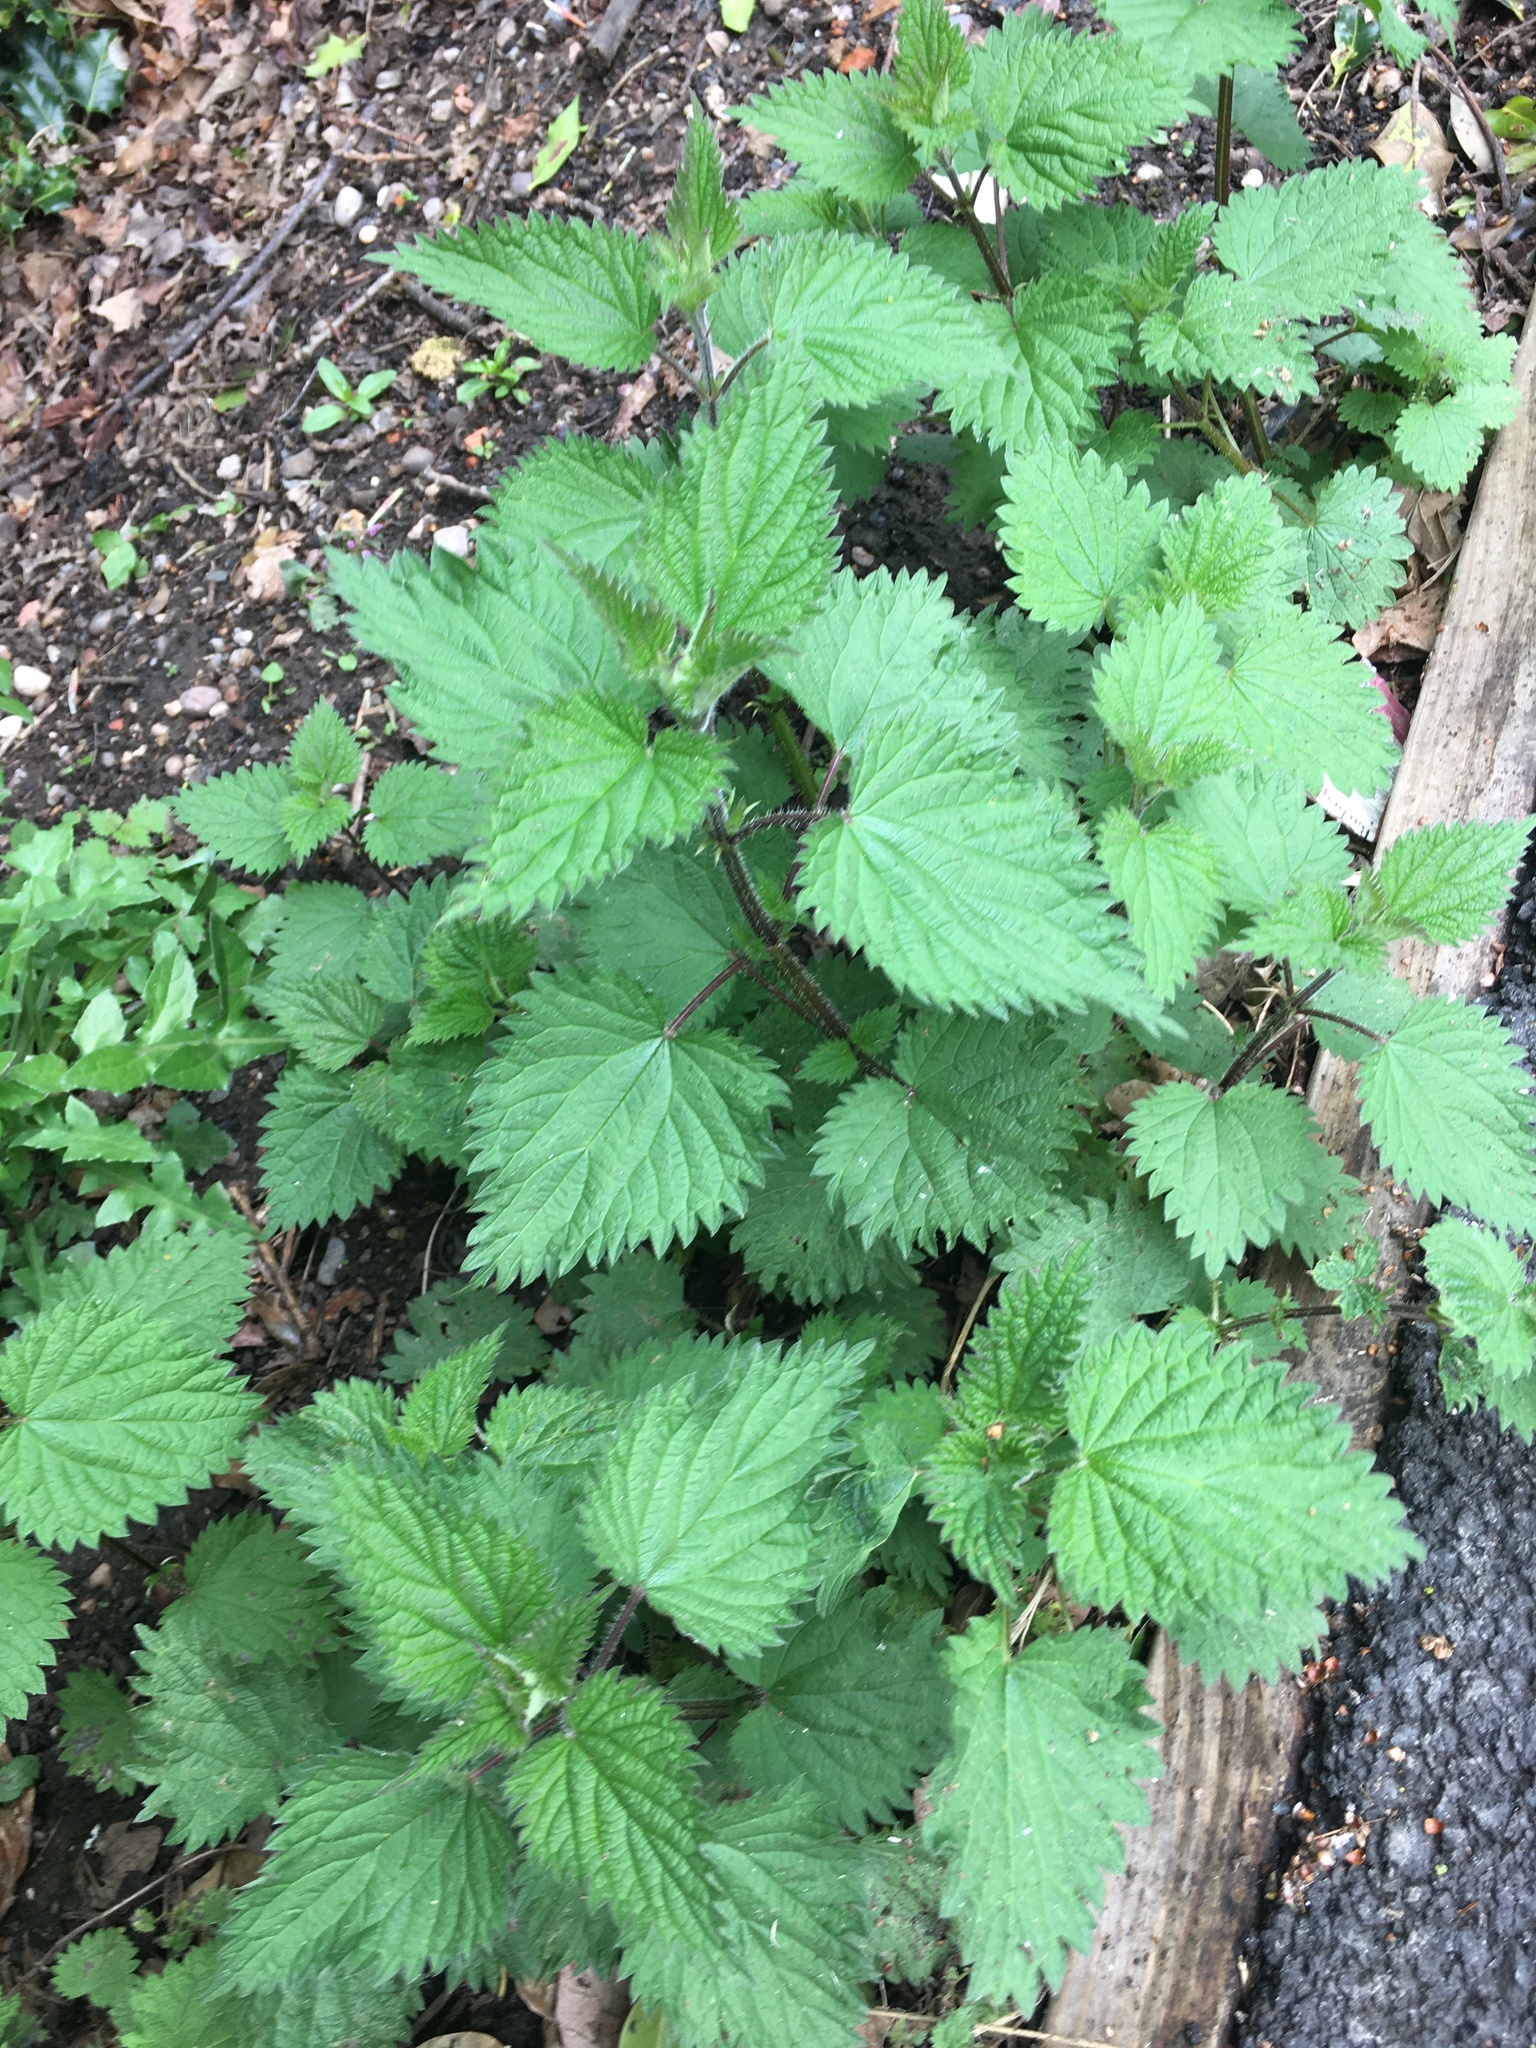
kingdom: Plantae
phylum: Tracheophyta
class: Magnoliopsida
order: Rosales
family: Urticaceae
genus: Urtica
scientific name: Urtica dioica
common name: Common nettle
